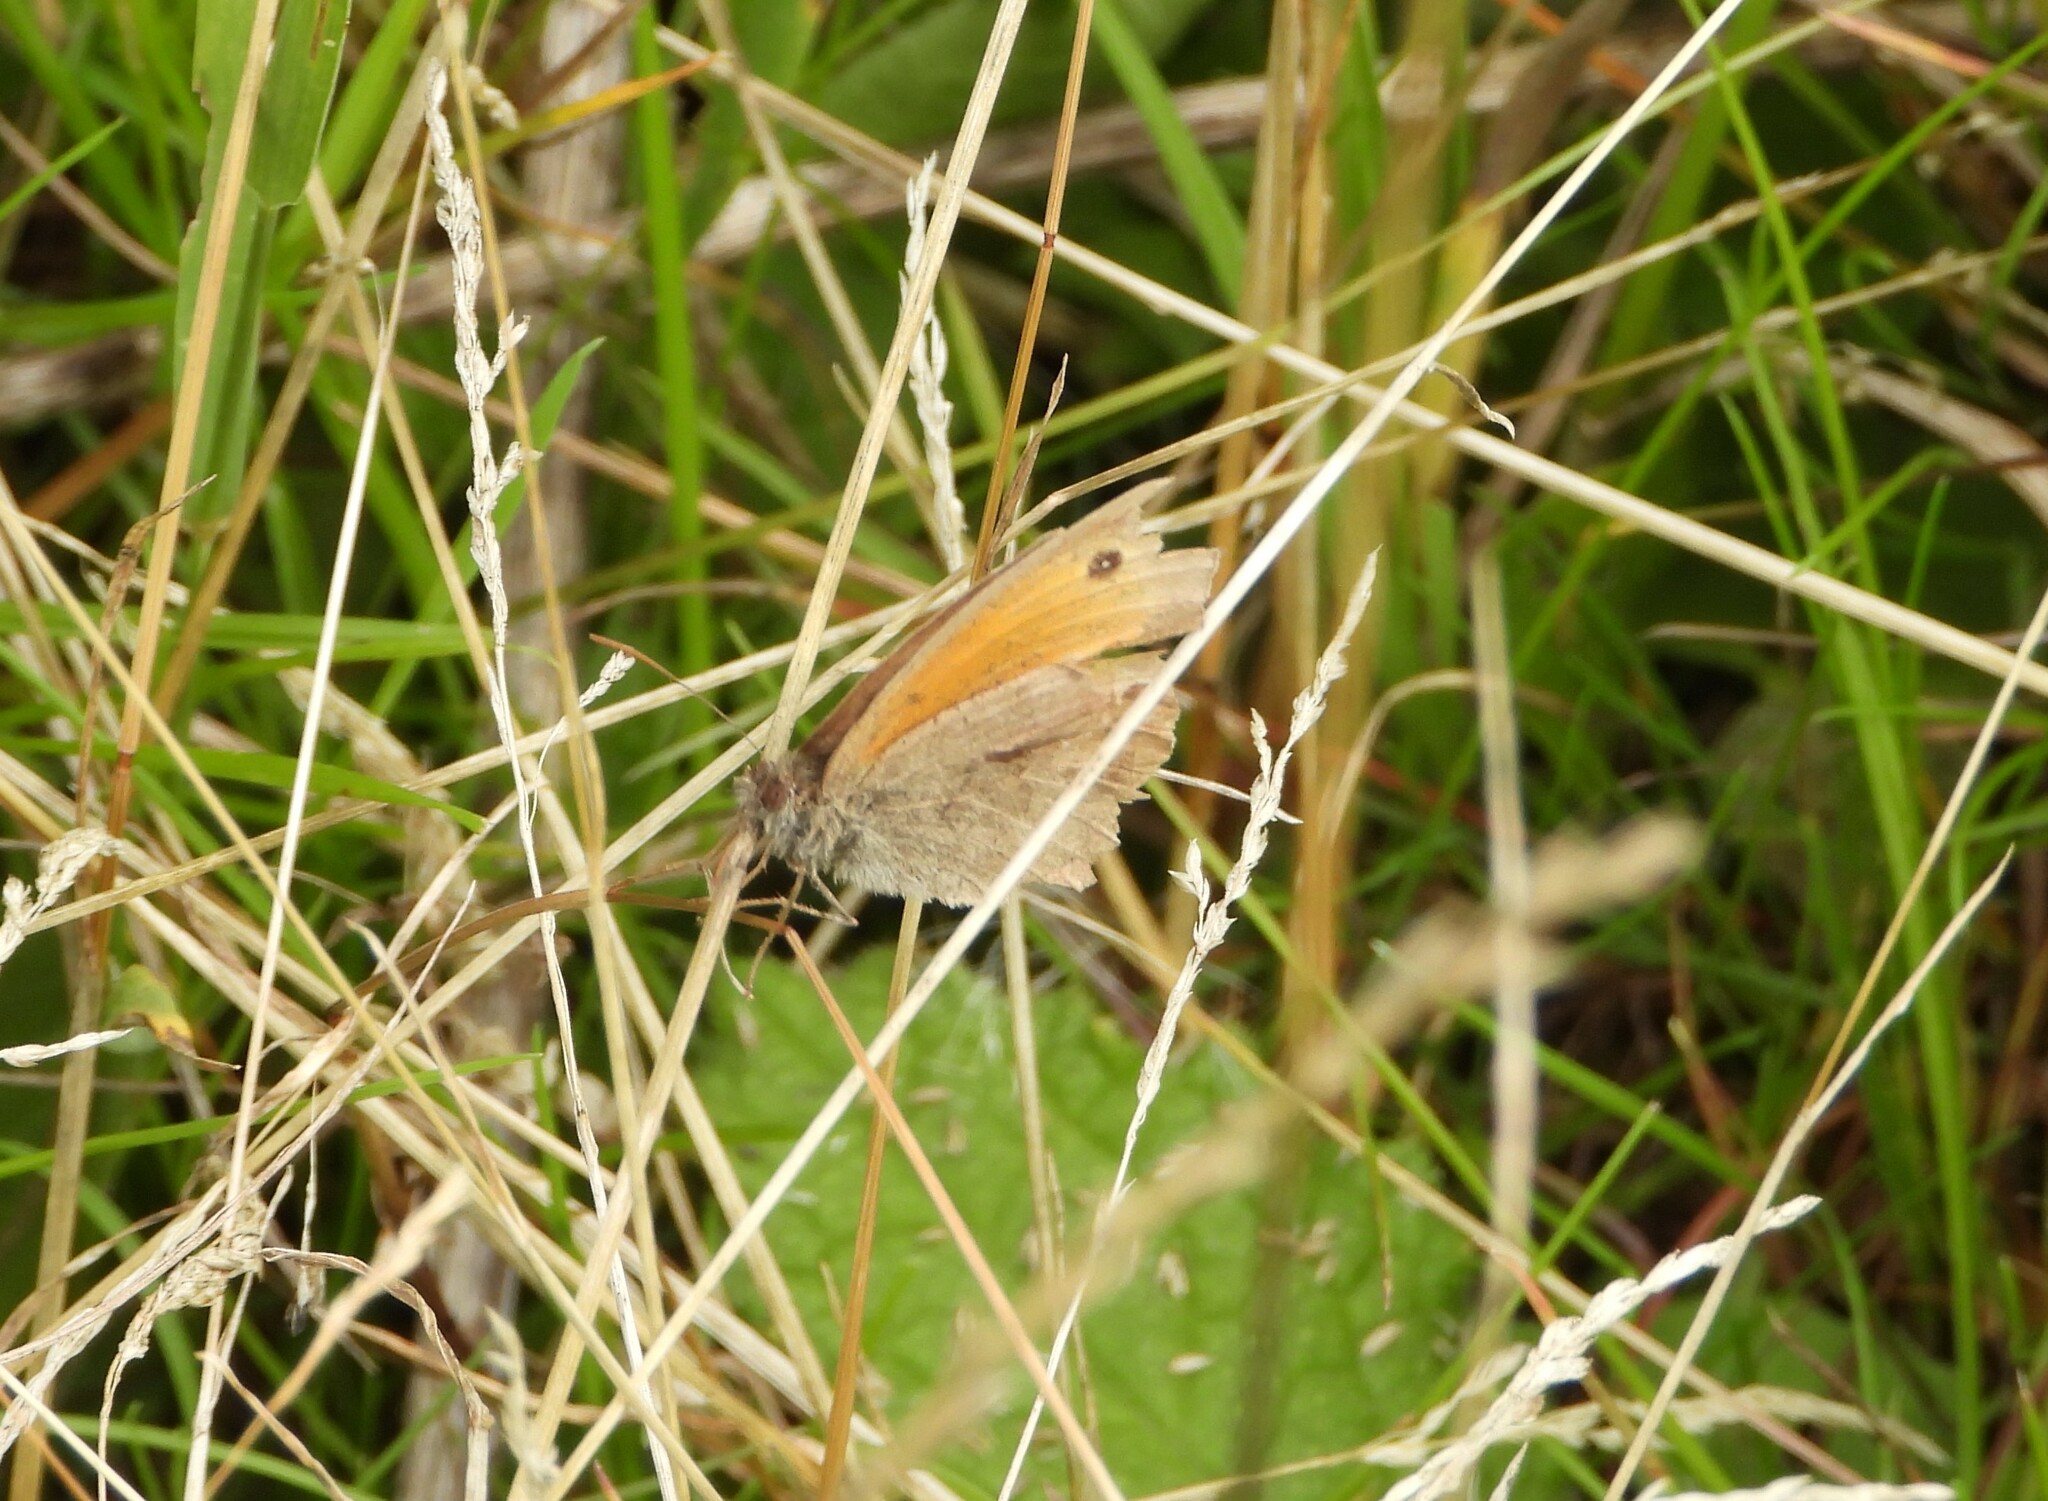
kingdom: Animalia
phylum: Arthropoda
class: Insecta
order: Lepidoptera
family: Nymphalidae
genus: Maniola
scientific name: Maniola jurtina
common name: Meadow brown
